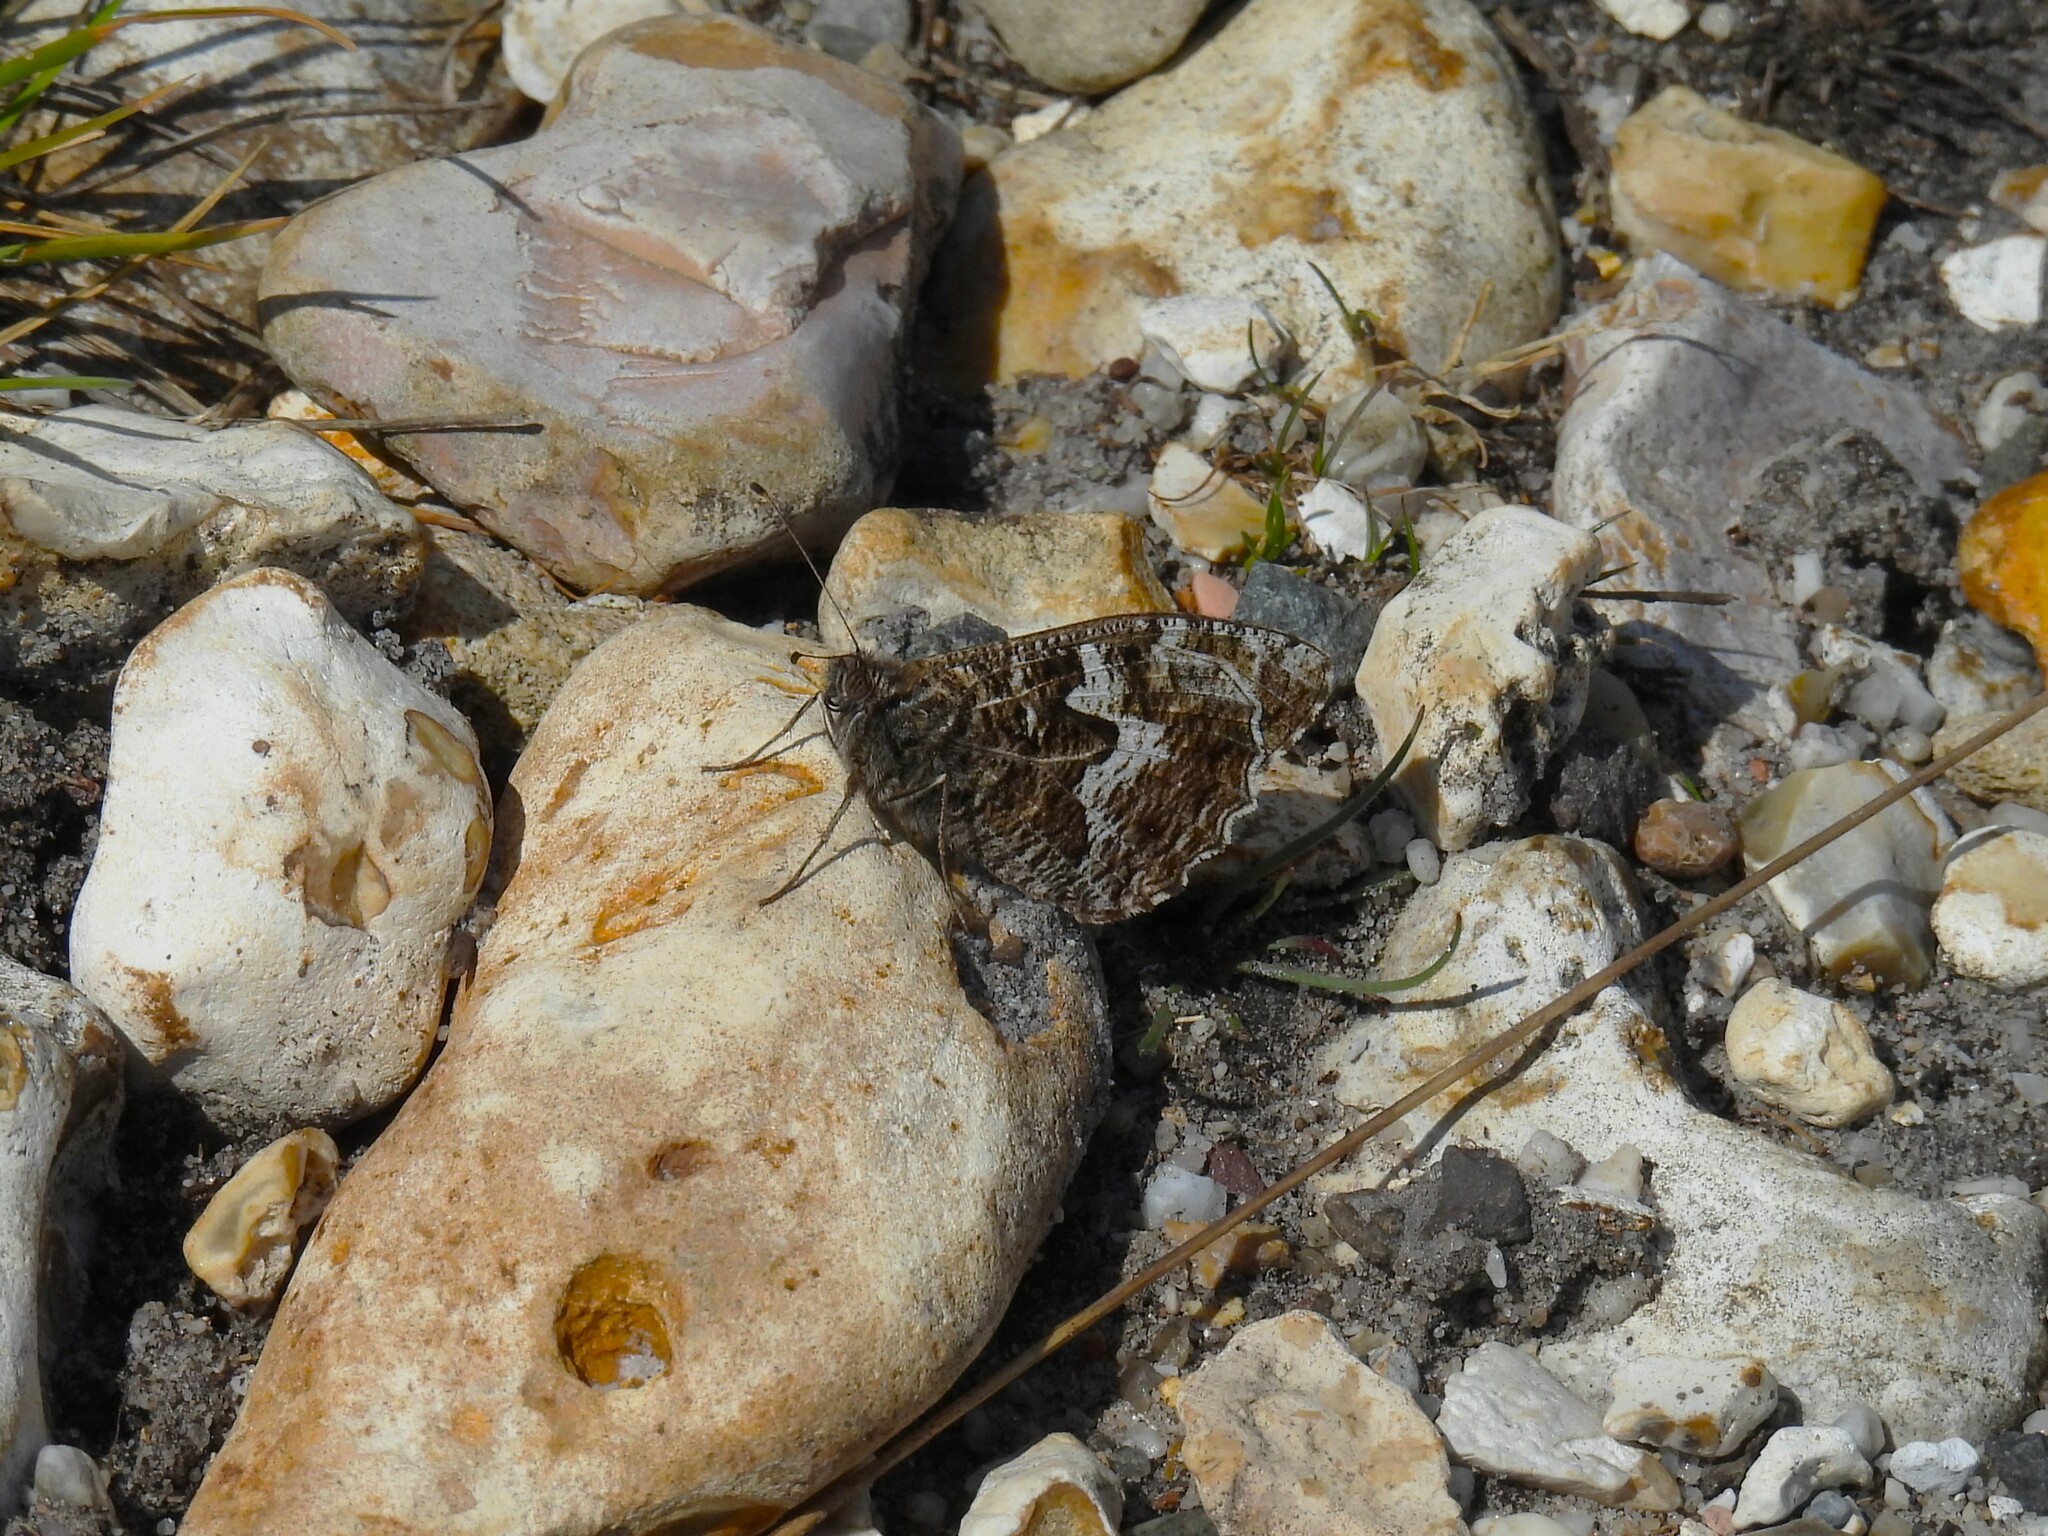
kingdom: Animalia
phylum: Arthropoda
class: Insecta
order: Lepidoptera
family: Nymphalidae
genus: Hipparchia
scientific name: Hipparchia semele
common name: Grayling
